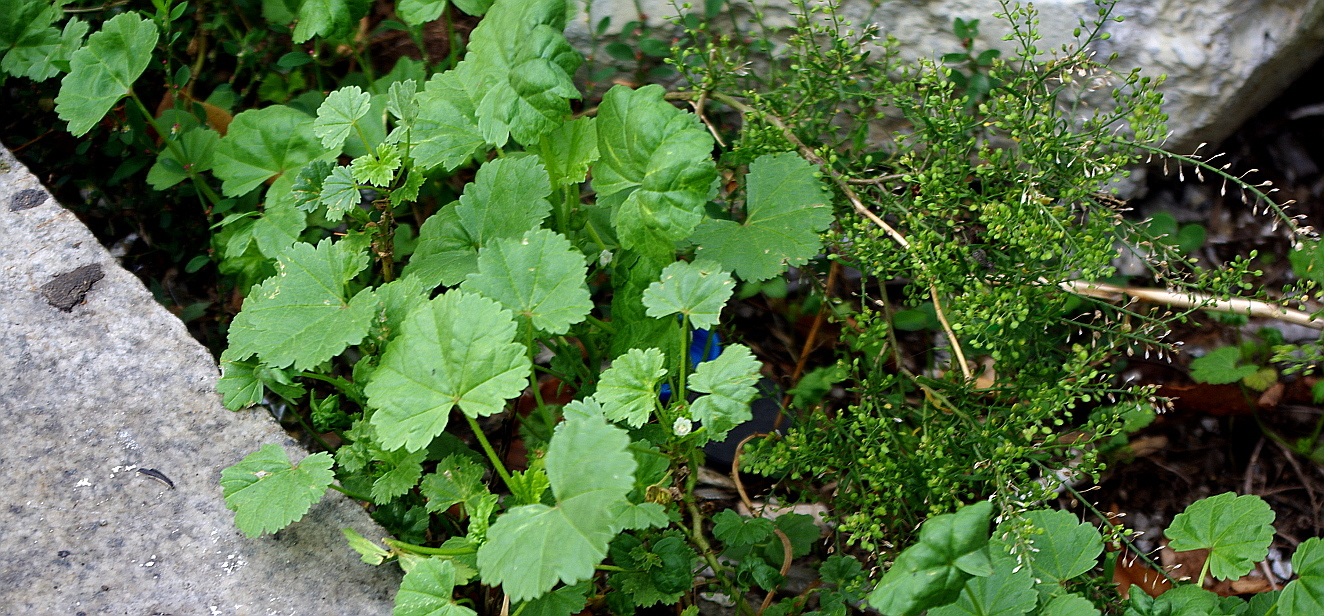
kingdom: Plantae
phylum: Tracheophyta
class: Magnoliopsida
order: Malvales
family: Malvaceae
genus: Malva
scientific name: Malva pusilla
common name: Small mallow
